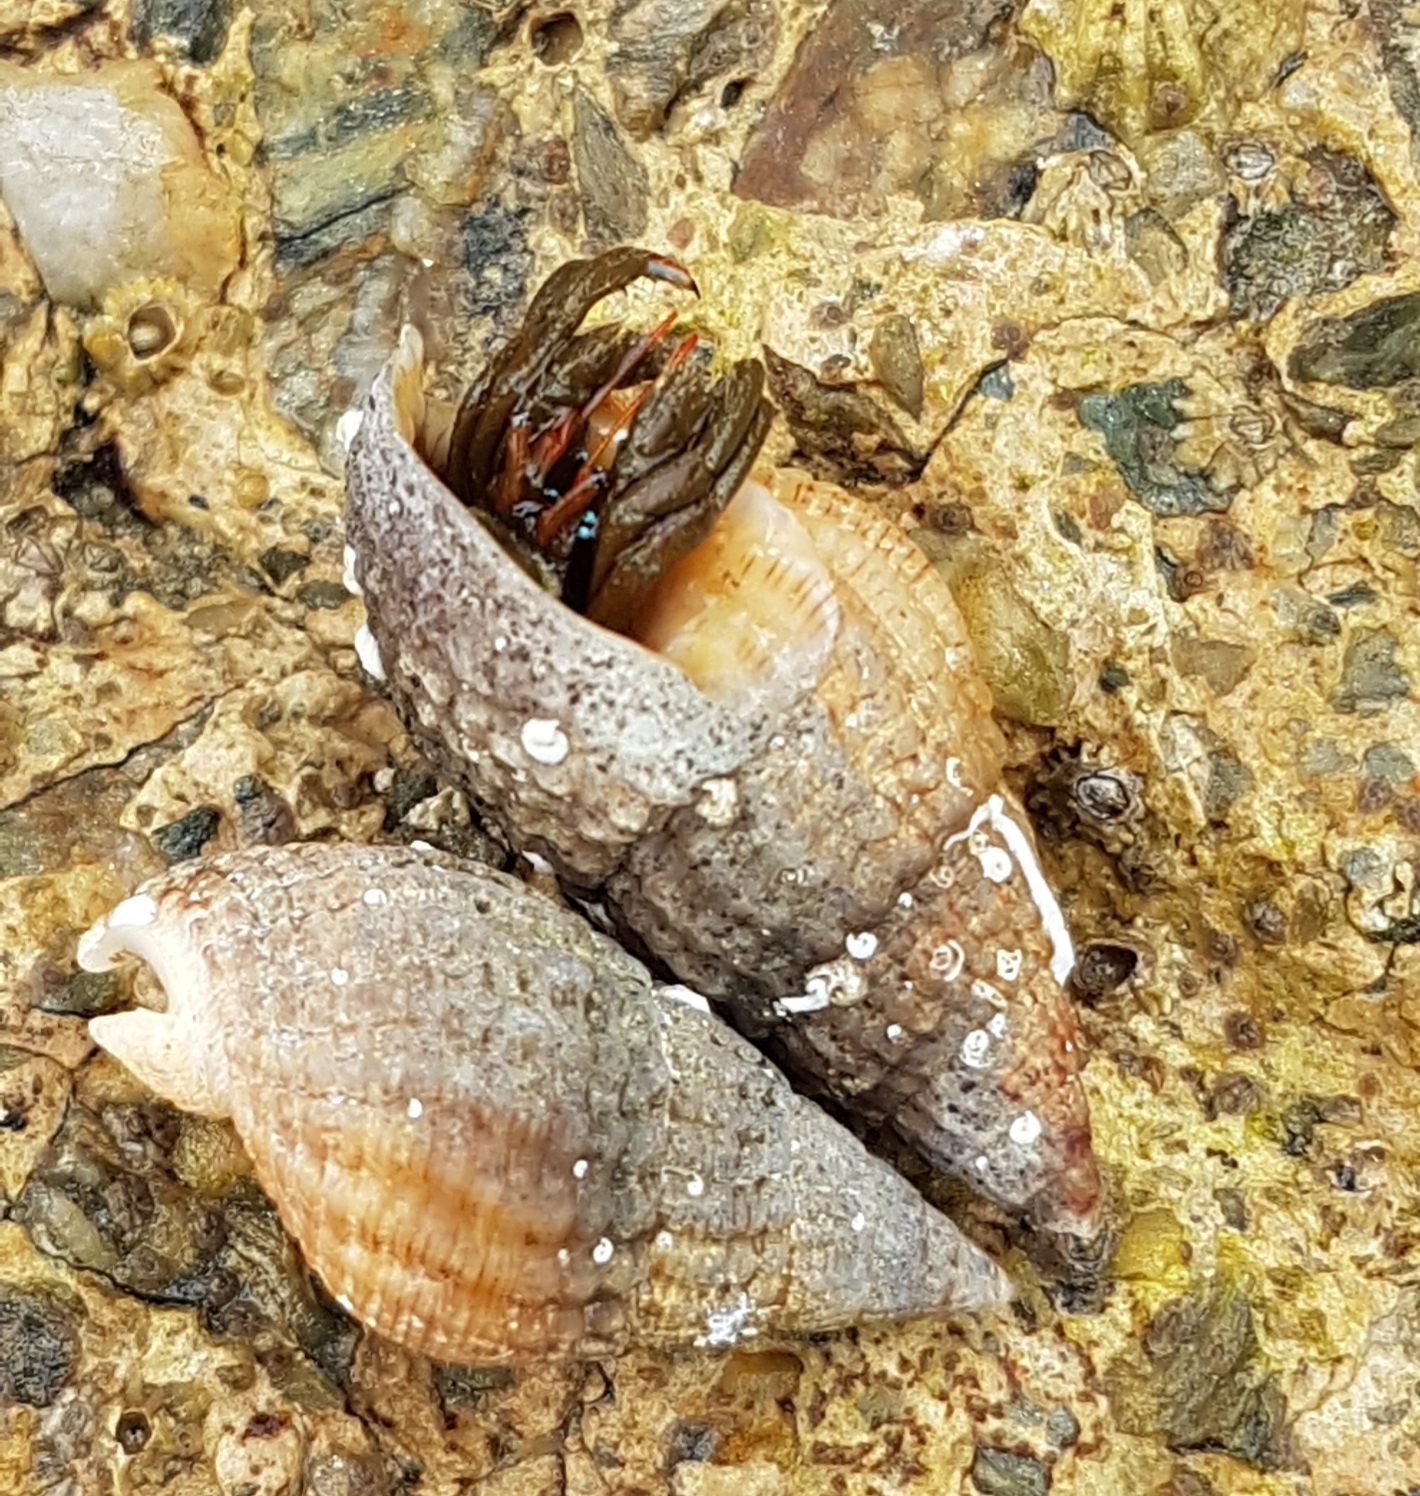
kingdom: Animalia
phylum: Arthropoda
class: Malacostraca
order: Decapoda
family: Diogenidae
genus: Clibanarius
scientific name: Clibanarius erythropus
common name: Hermit crab
